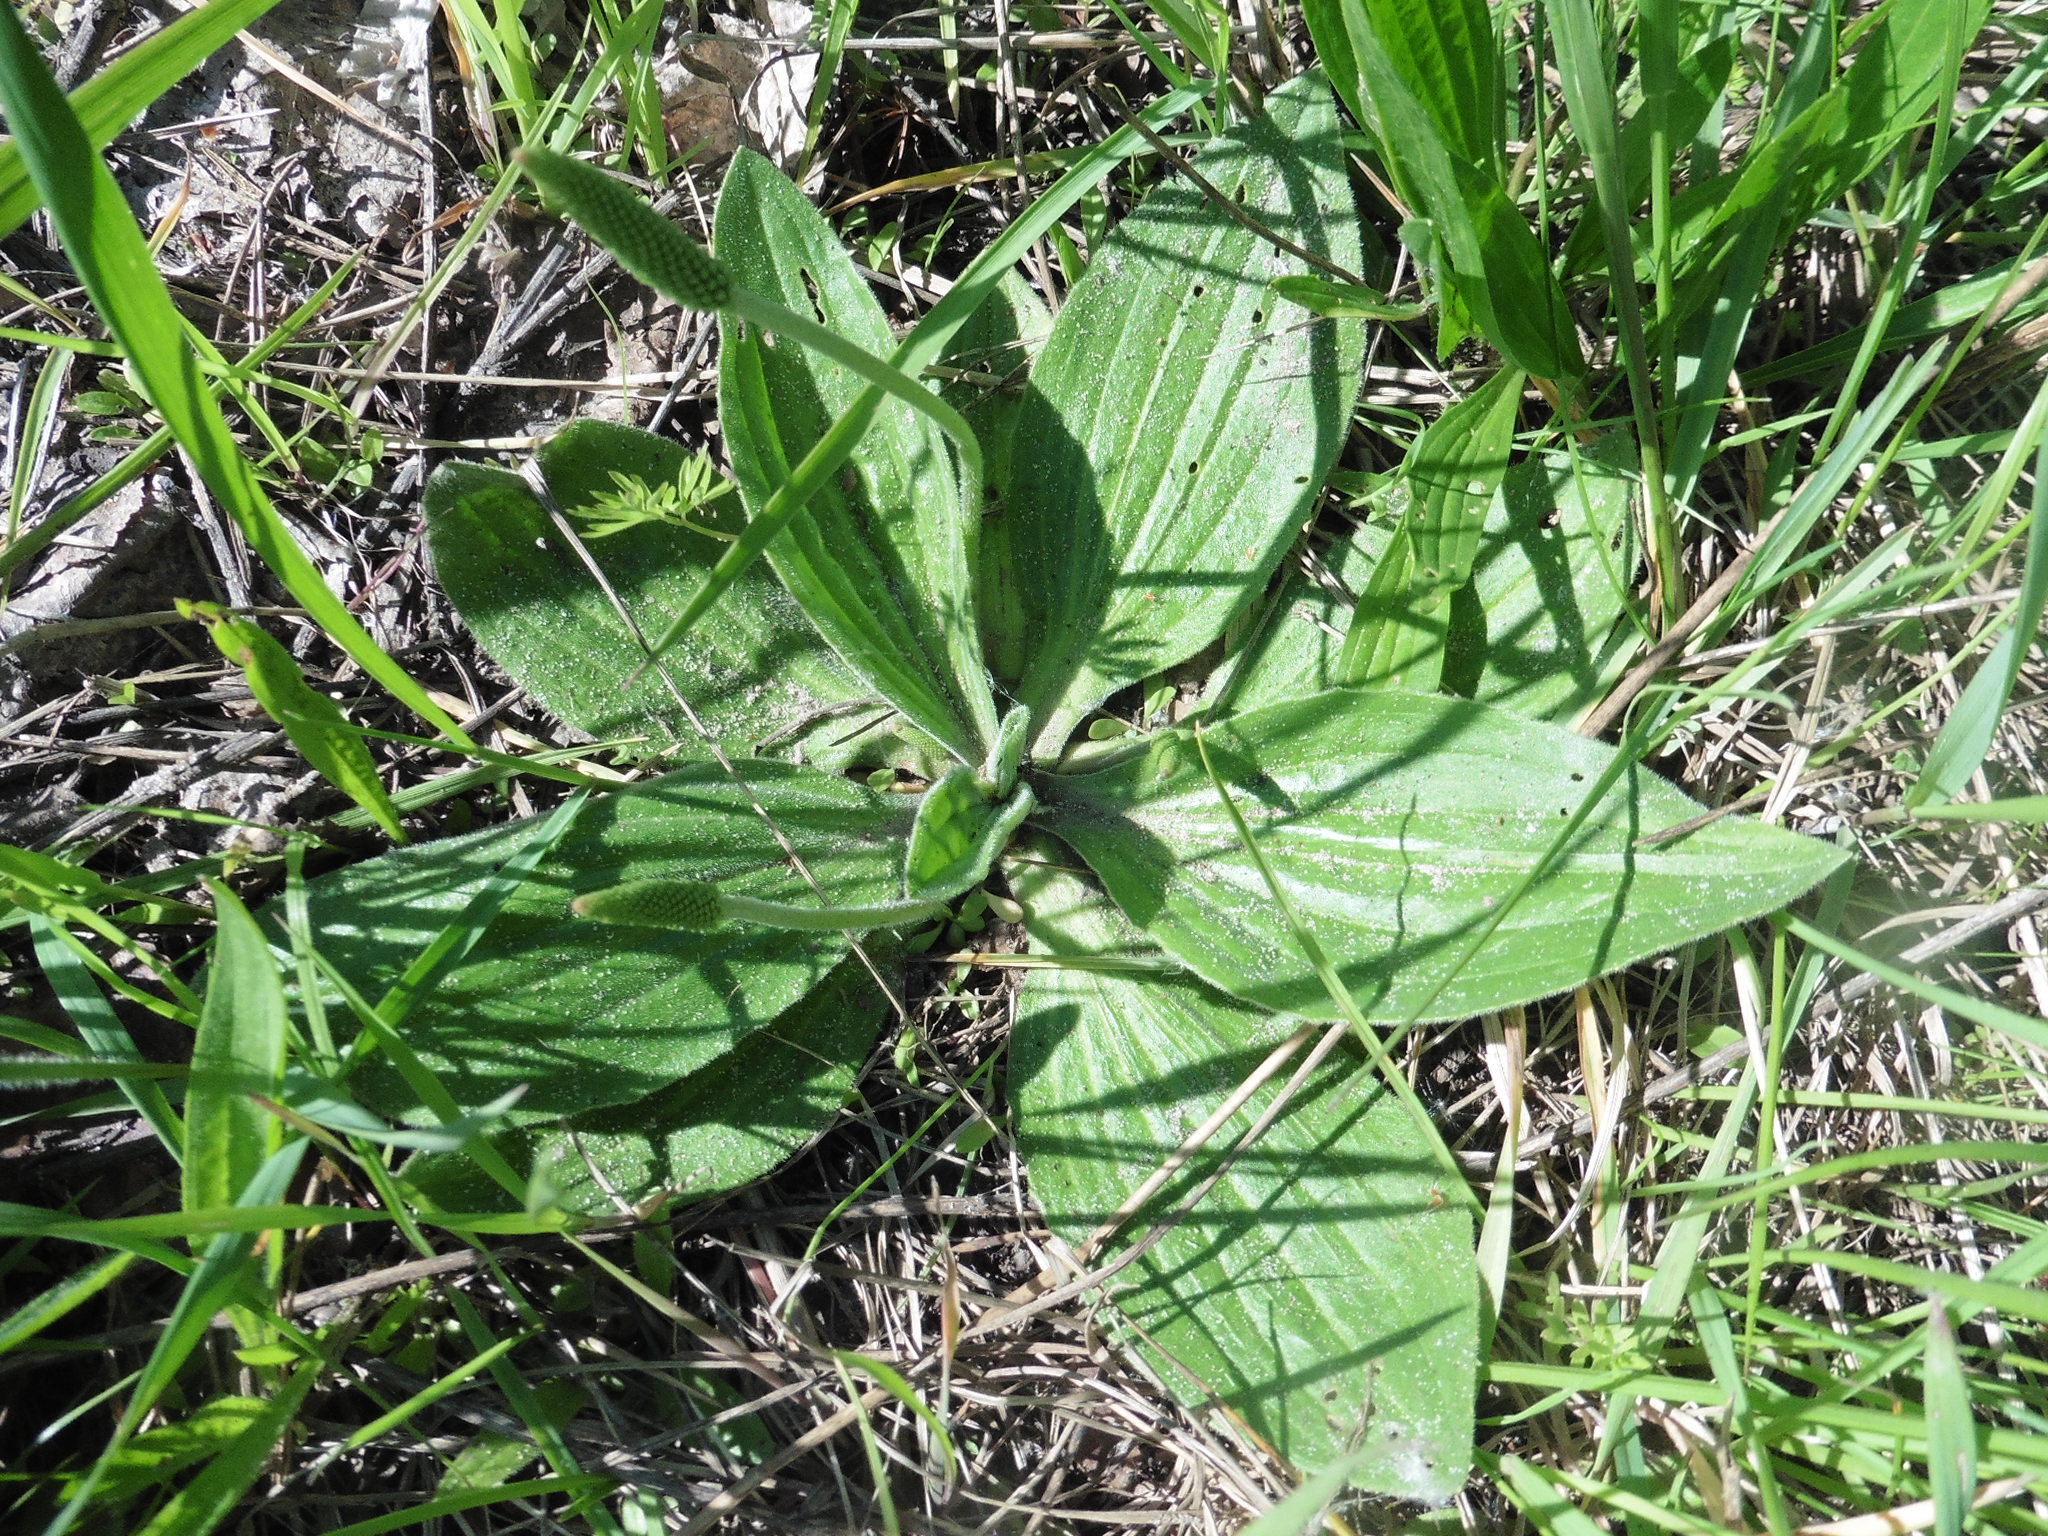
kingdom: Plantae
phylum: Tracheophyta
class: Magnoliopsida
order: Lamiales
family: Plantaginaceae
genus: Plantago
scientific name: Plantago media
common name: Hoary plantain
